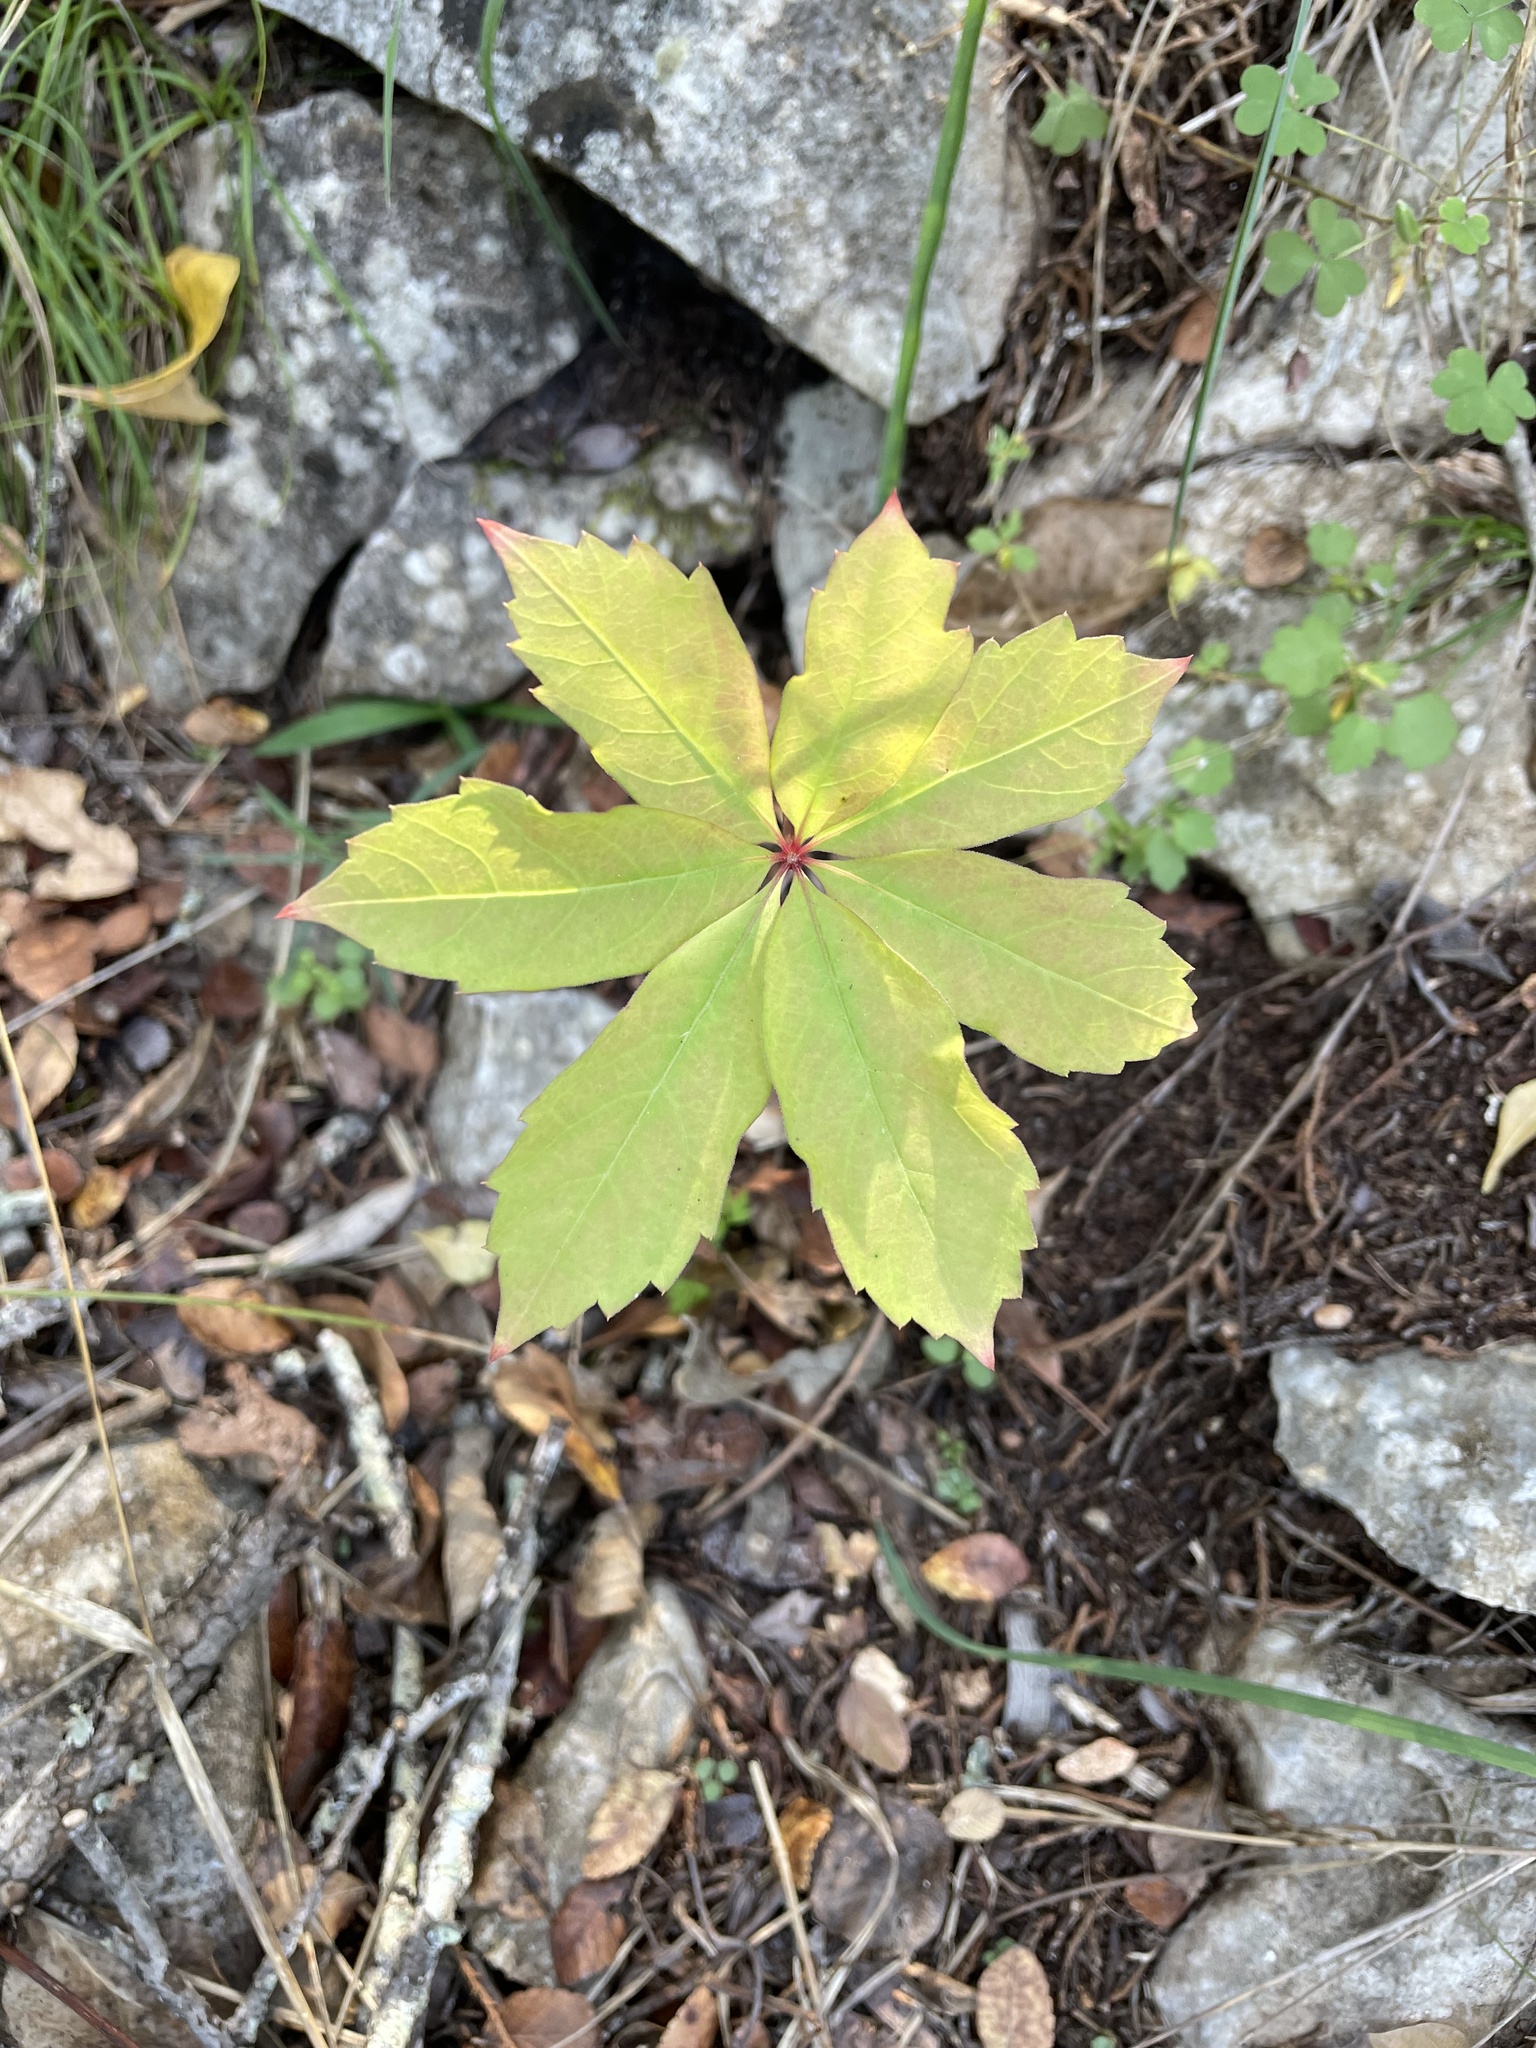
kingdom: Plantae
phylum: Tracheophyta
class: Magnoliopsida
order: Vitales
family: Vitaceae
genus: Parthenocissus
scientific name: Parthenocissus heptaphylla
